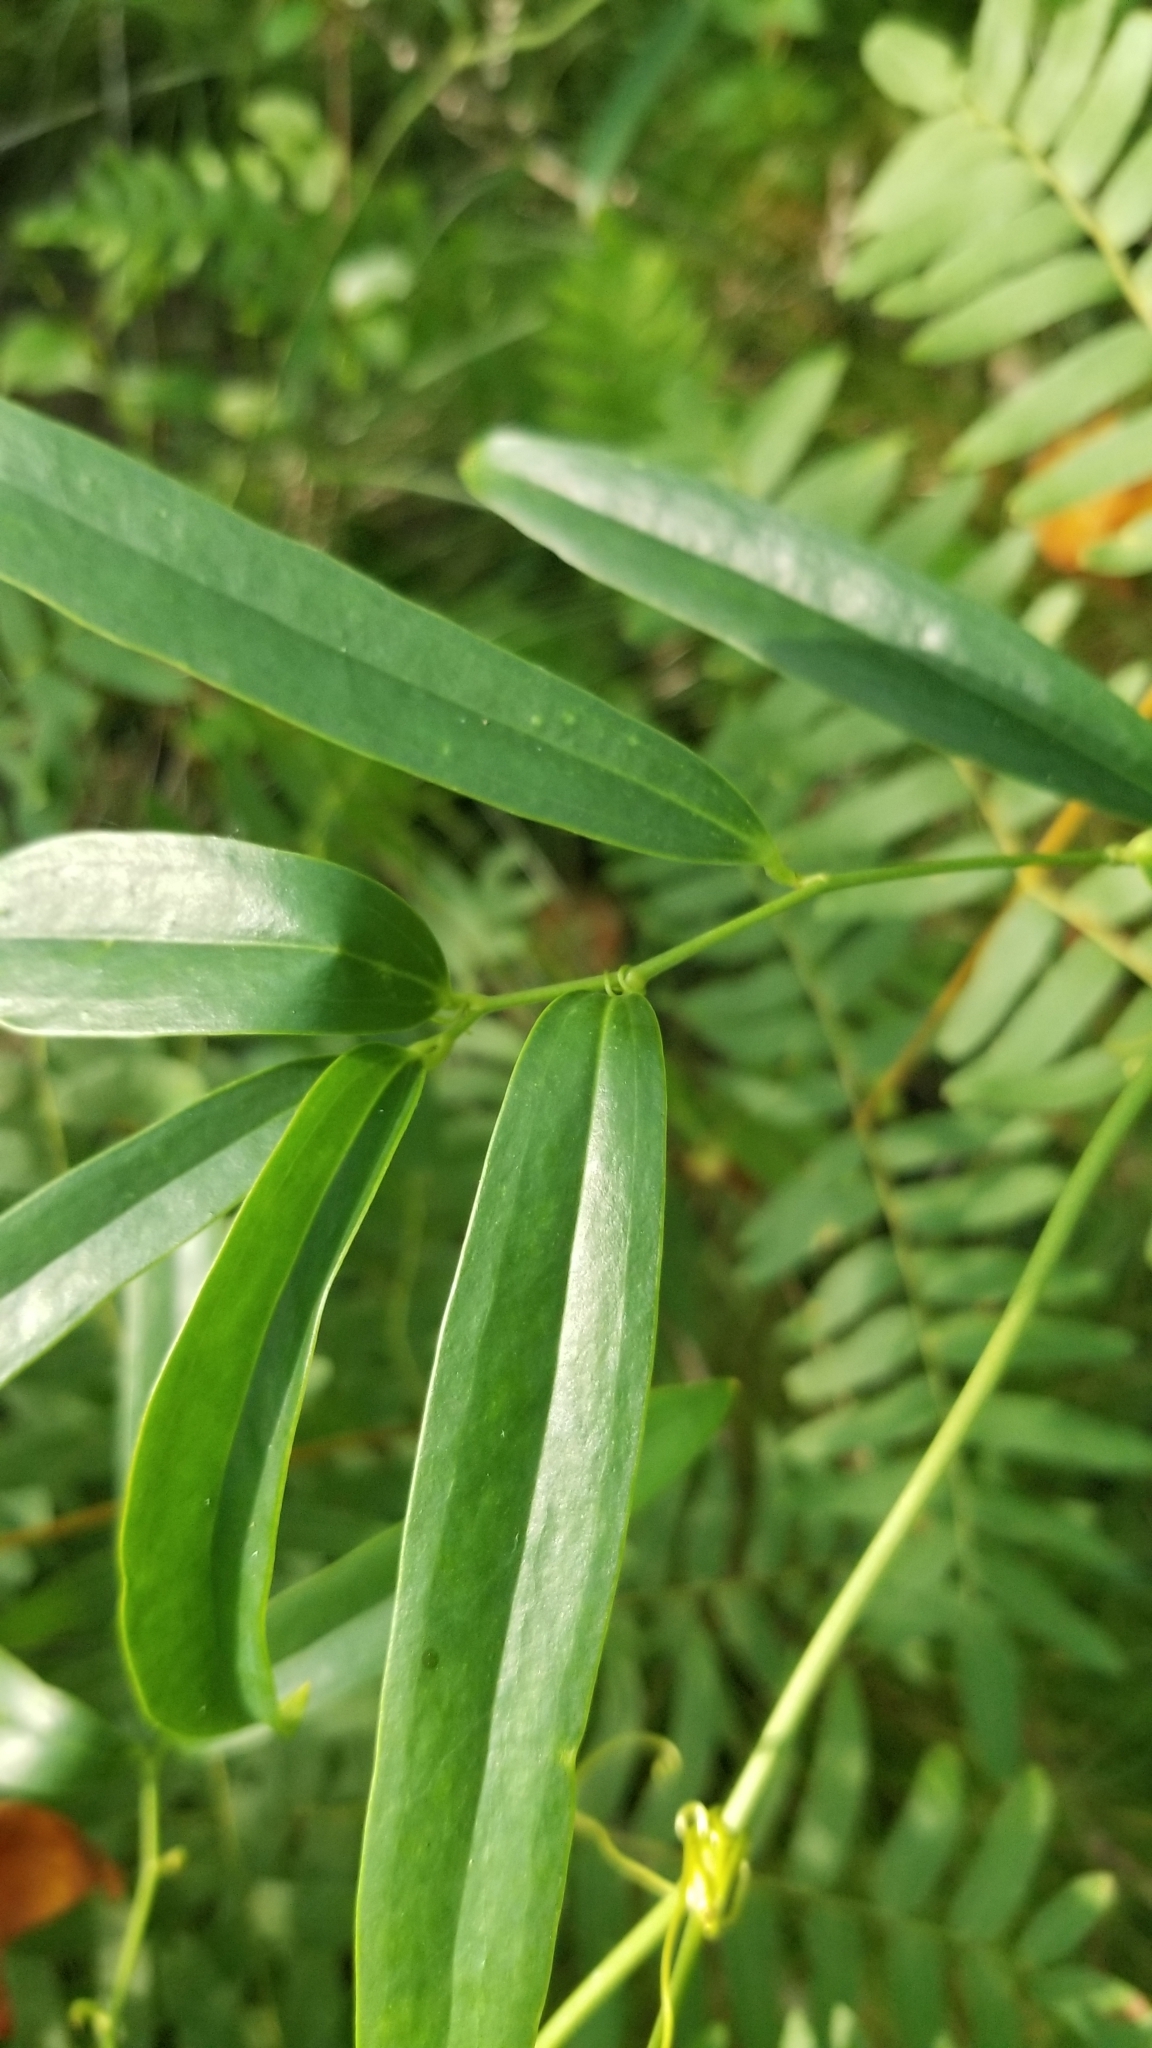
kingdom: Plantae
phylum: Tracheophyta
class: Liliopsida
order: Liliales
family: Smilacaceae
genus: Smilax
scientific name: Smilax laurifolia
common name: Bamboovine
